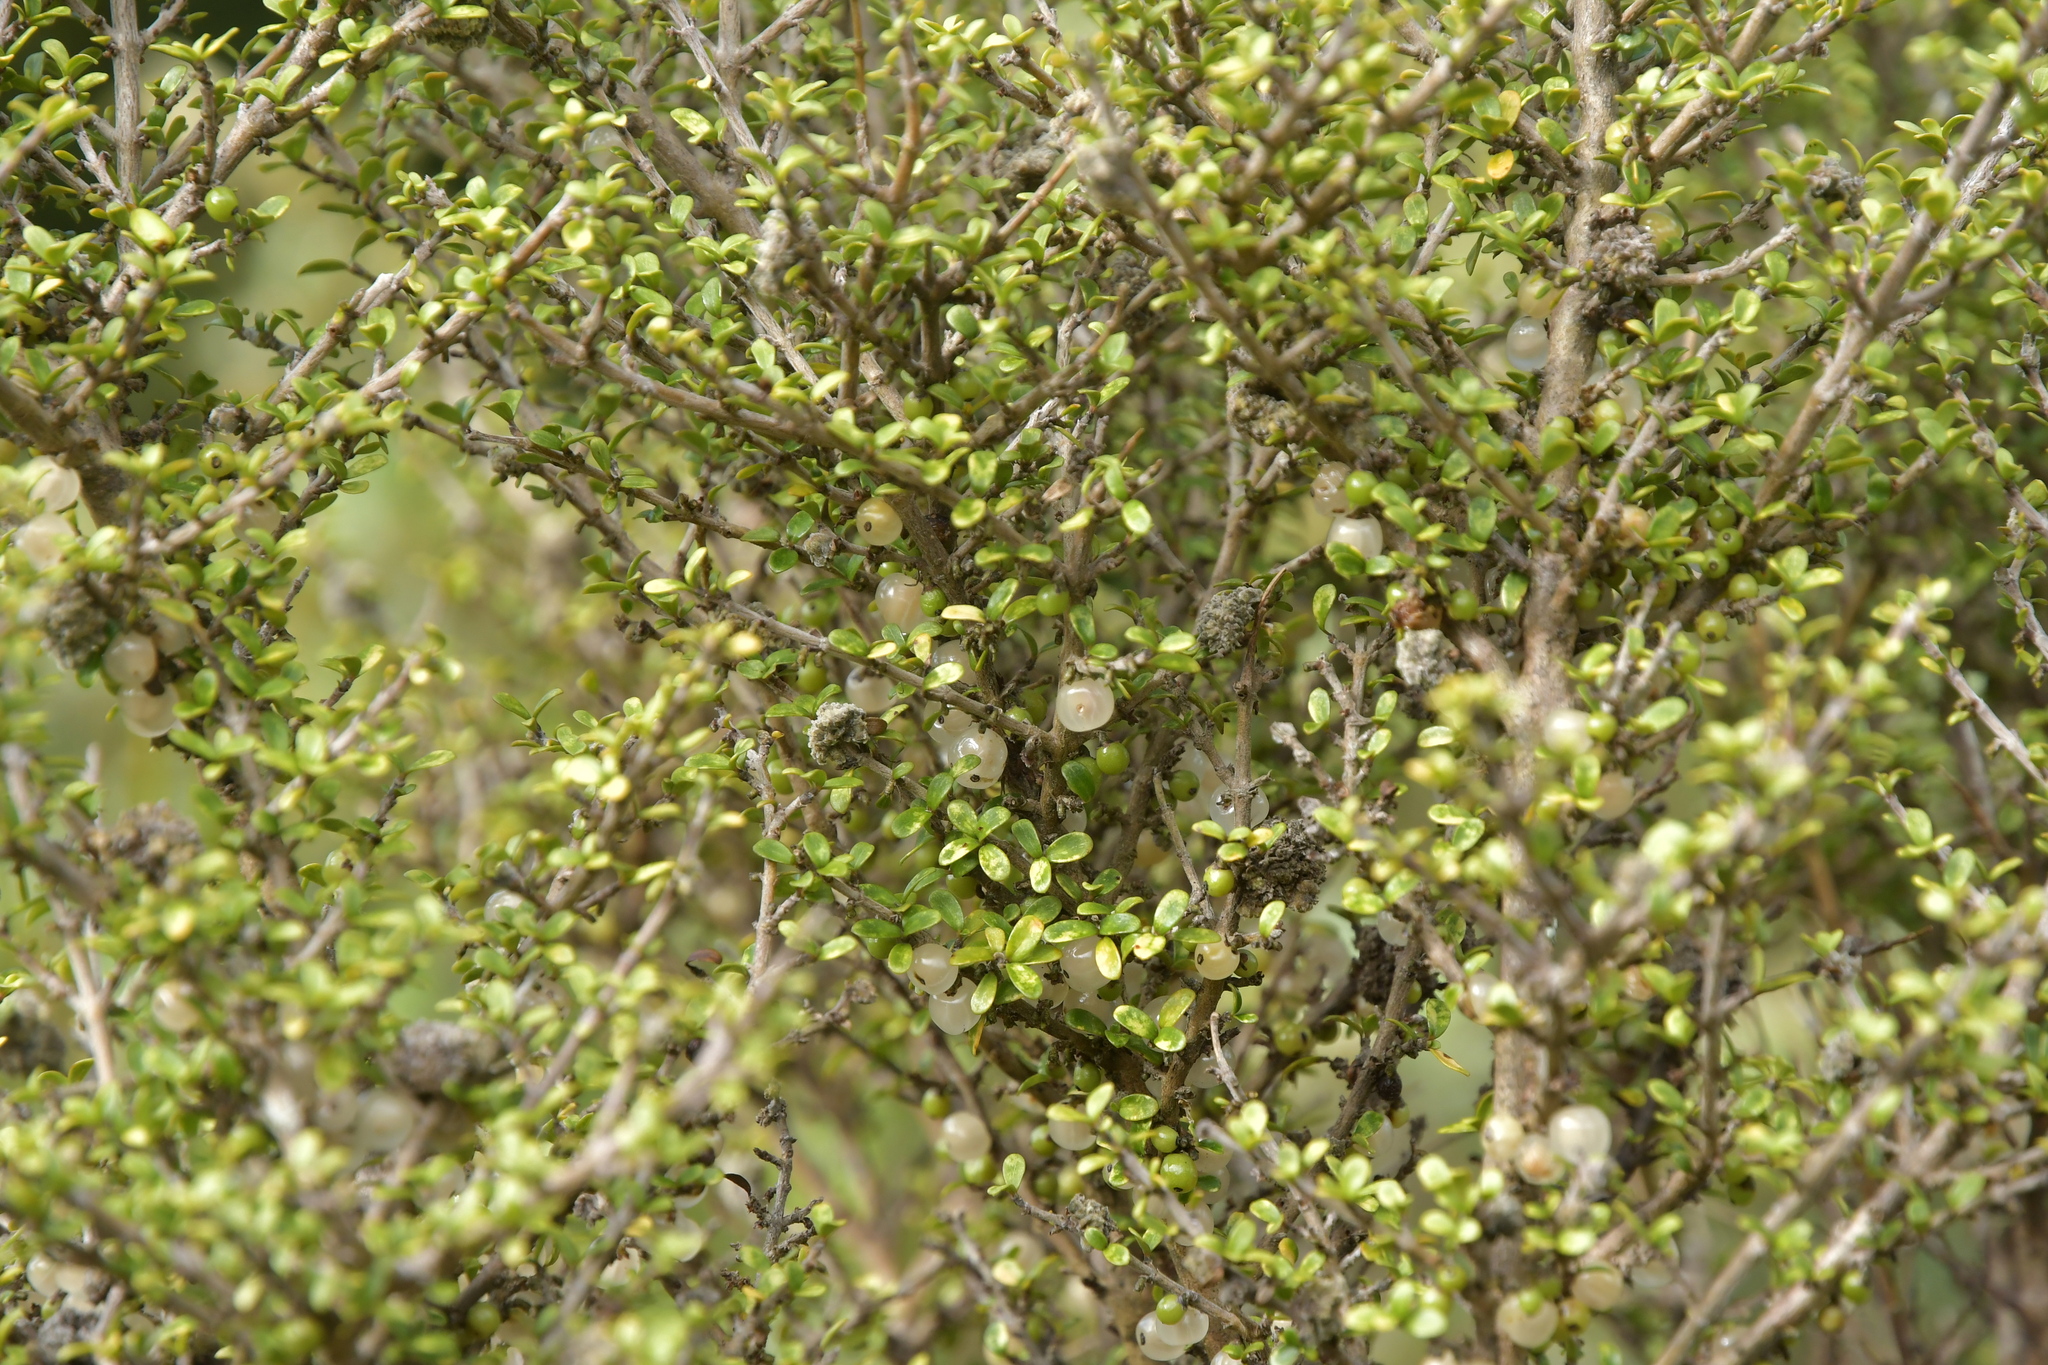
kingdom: Plantae
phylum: Tracheophyta
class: Magnoliopsida
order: Gentianales
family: Rubiaceae
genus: Coprosma
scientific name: Coprosma dumosa
